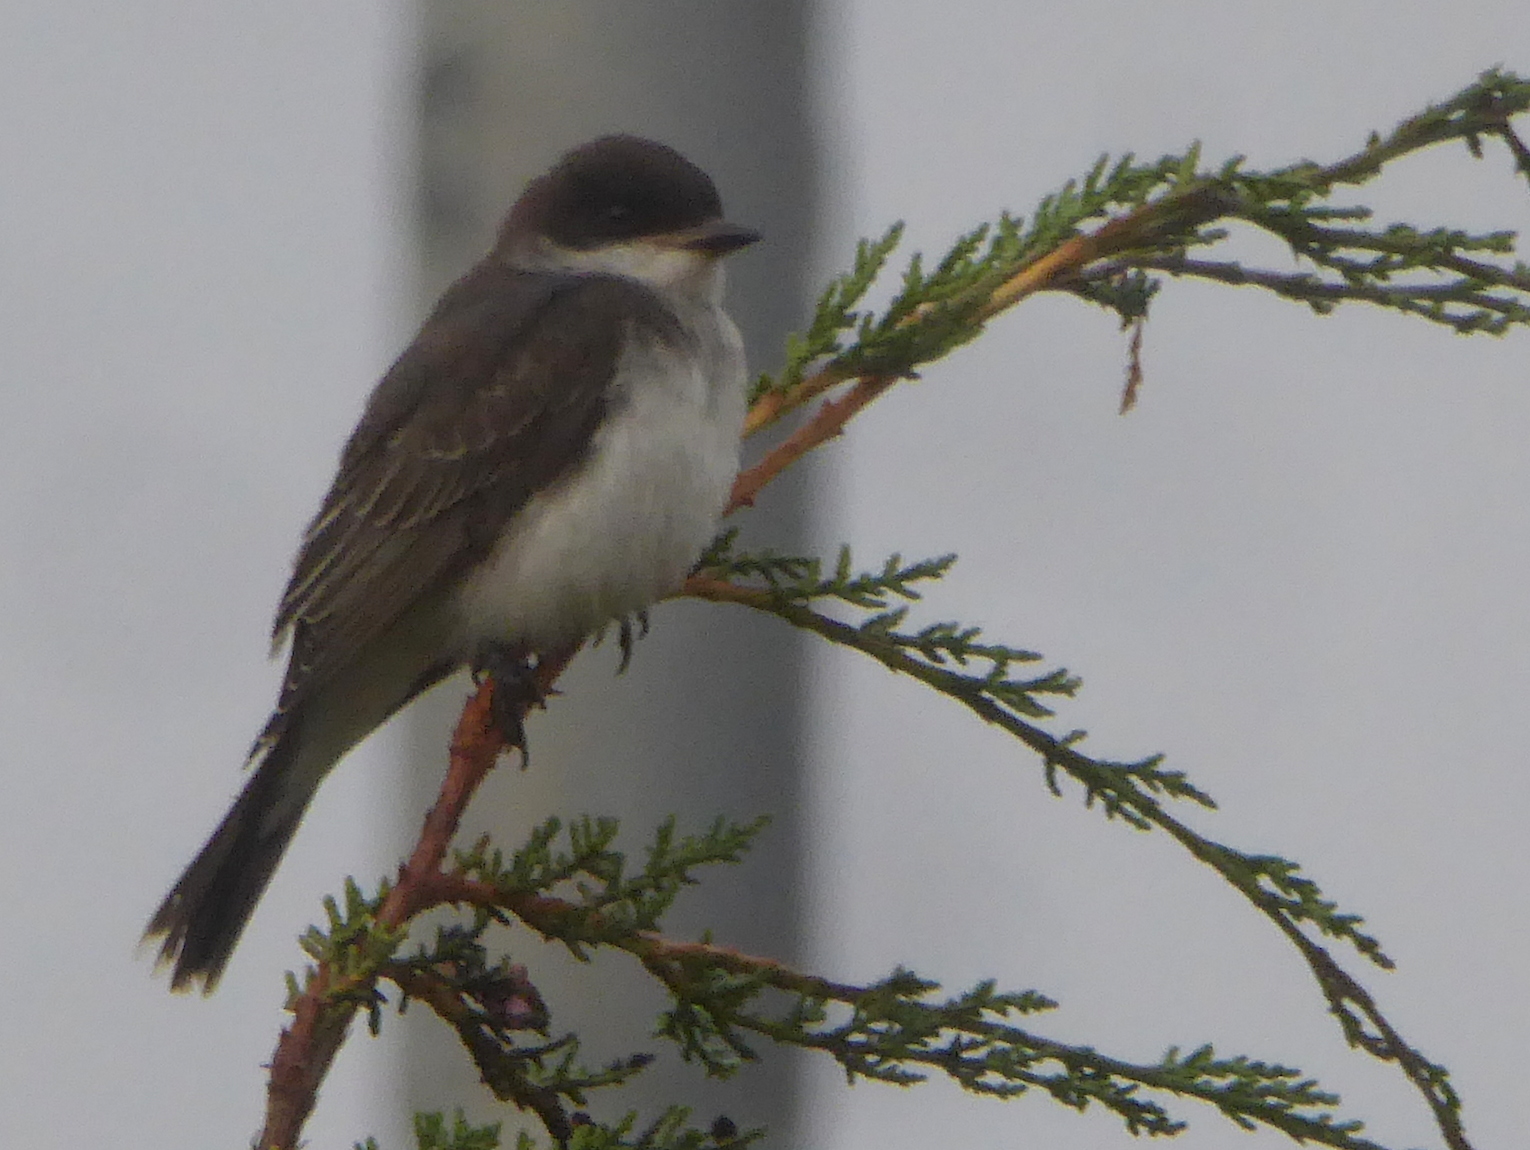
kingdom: Animalia
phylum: Chordata
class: Aves
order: Passeriformes
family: Tyrannidae
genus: Tyrannus
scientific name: Tyrannus tyrannus
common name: Eastern kingbird
